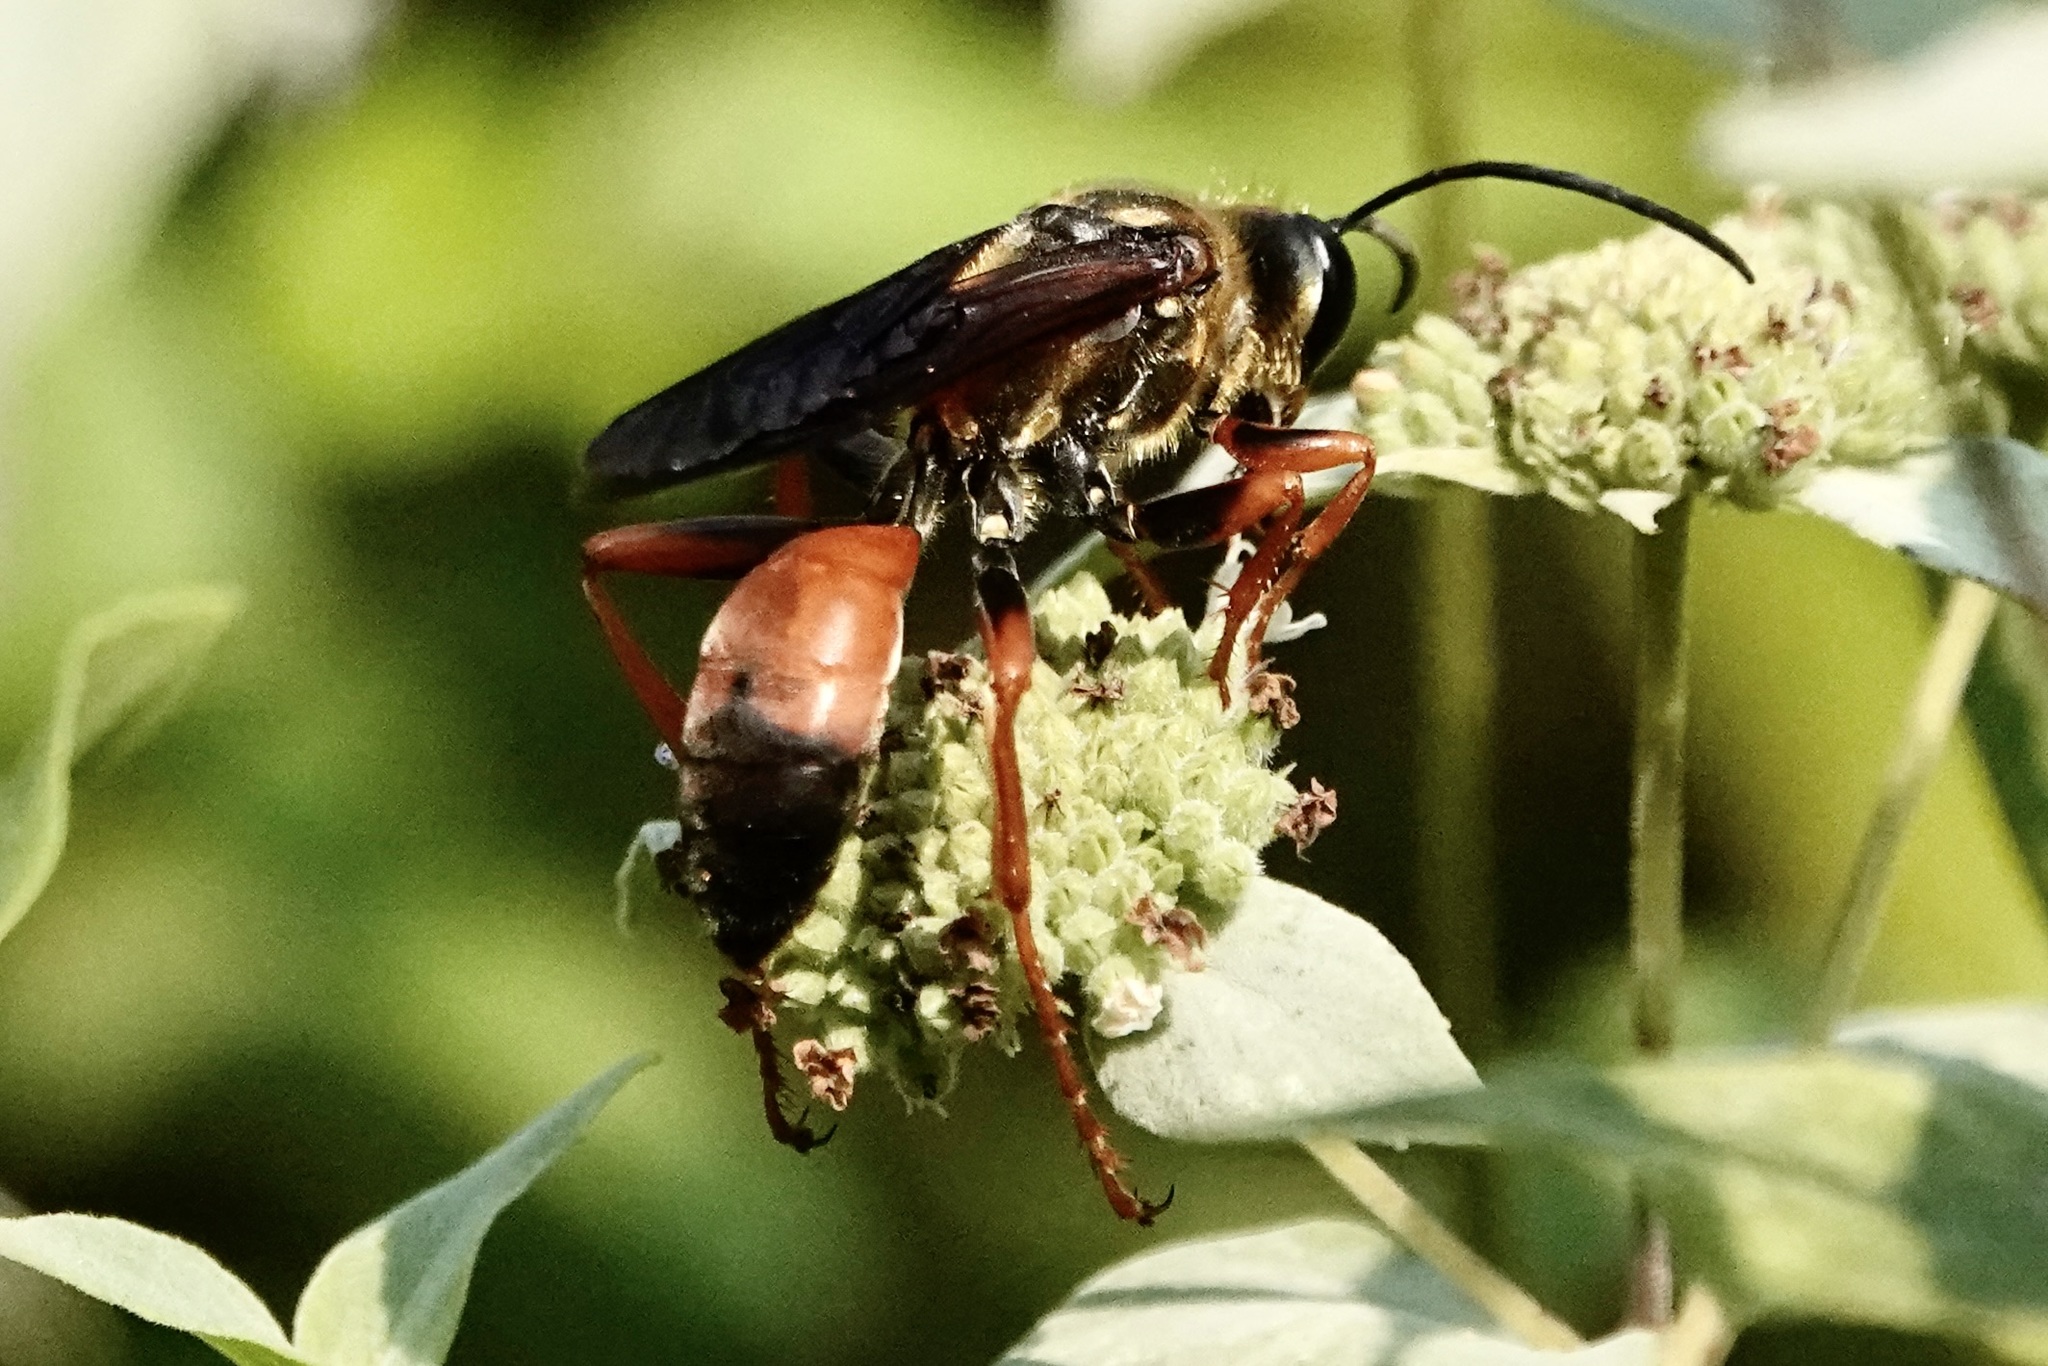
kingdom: Animalia
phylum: Arthropoda
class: Insecta
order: Hymenoptera
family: Sphecidae
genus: Sphex
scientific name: Sphex ichneumoneus
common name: Great golden digger wasp
